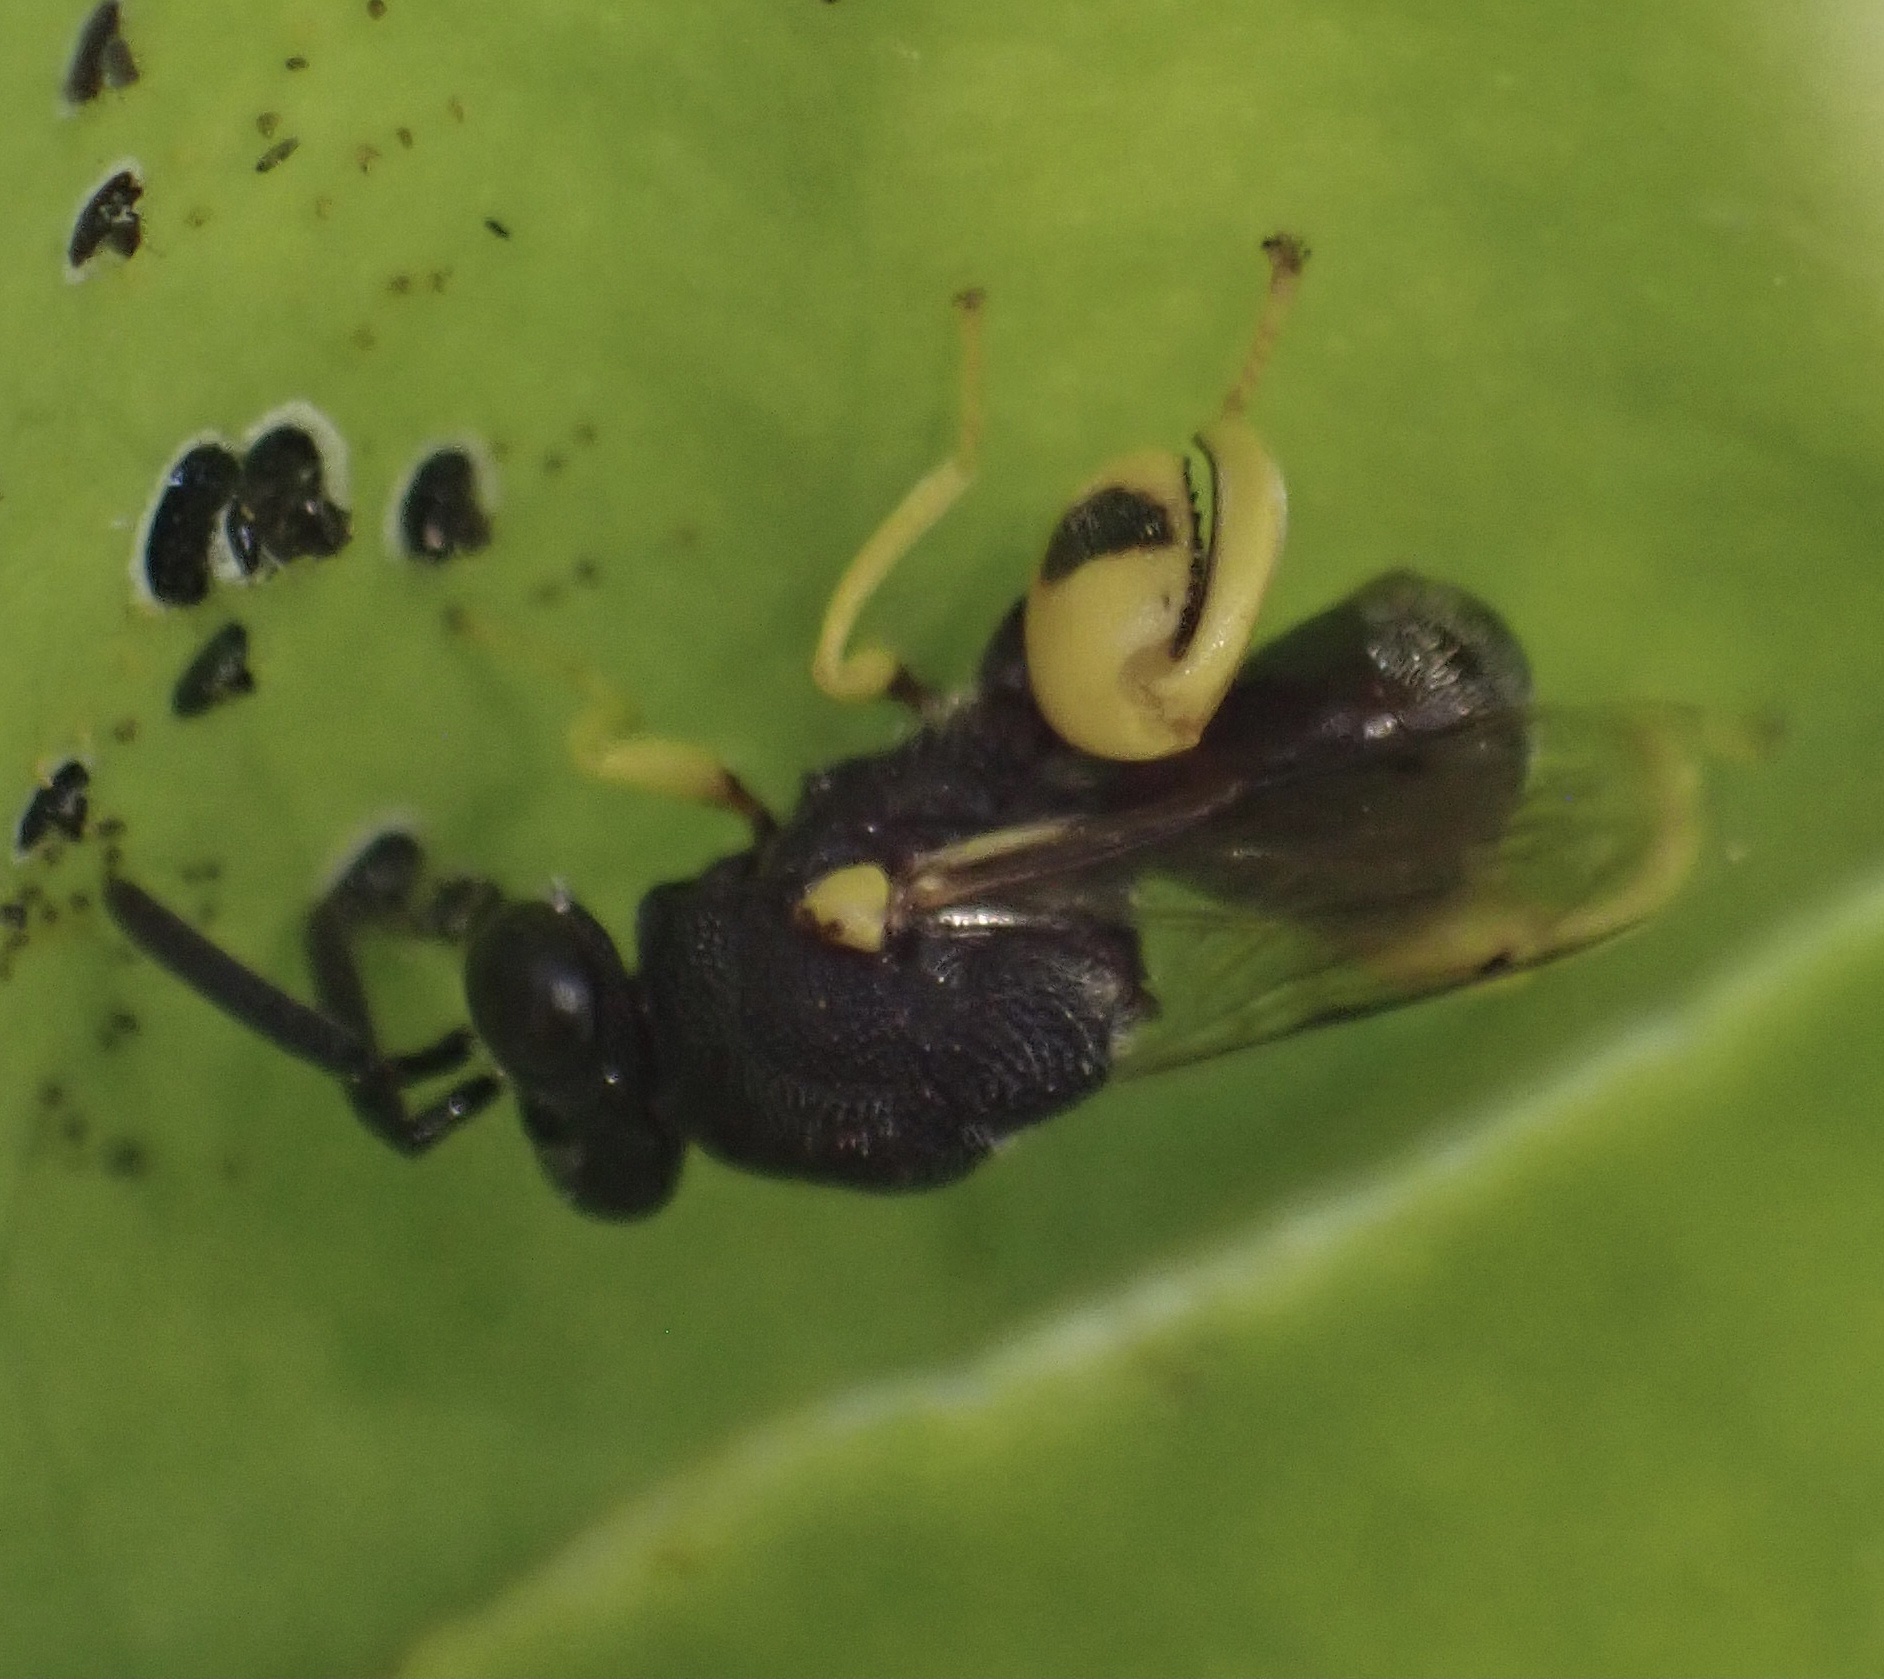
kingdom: Animalia
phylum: Arthropoda
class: Insecta
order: Hymenoptera
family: Chalcididae
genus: Brachymeria
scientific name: Brachymeria femorata
